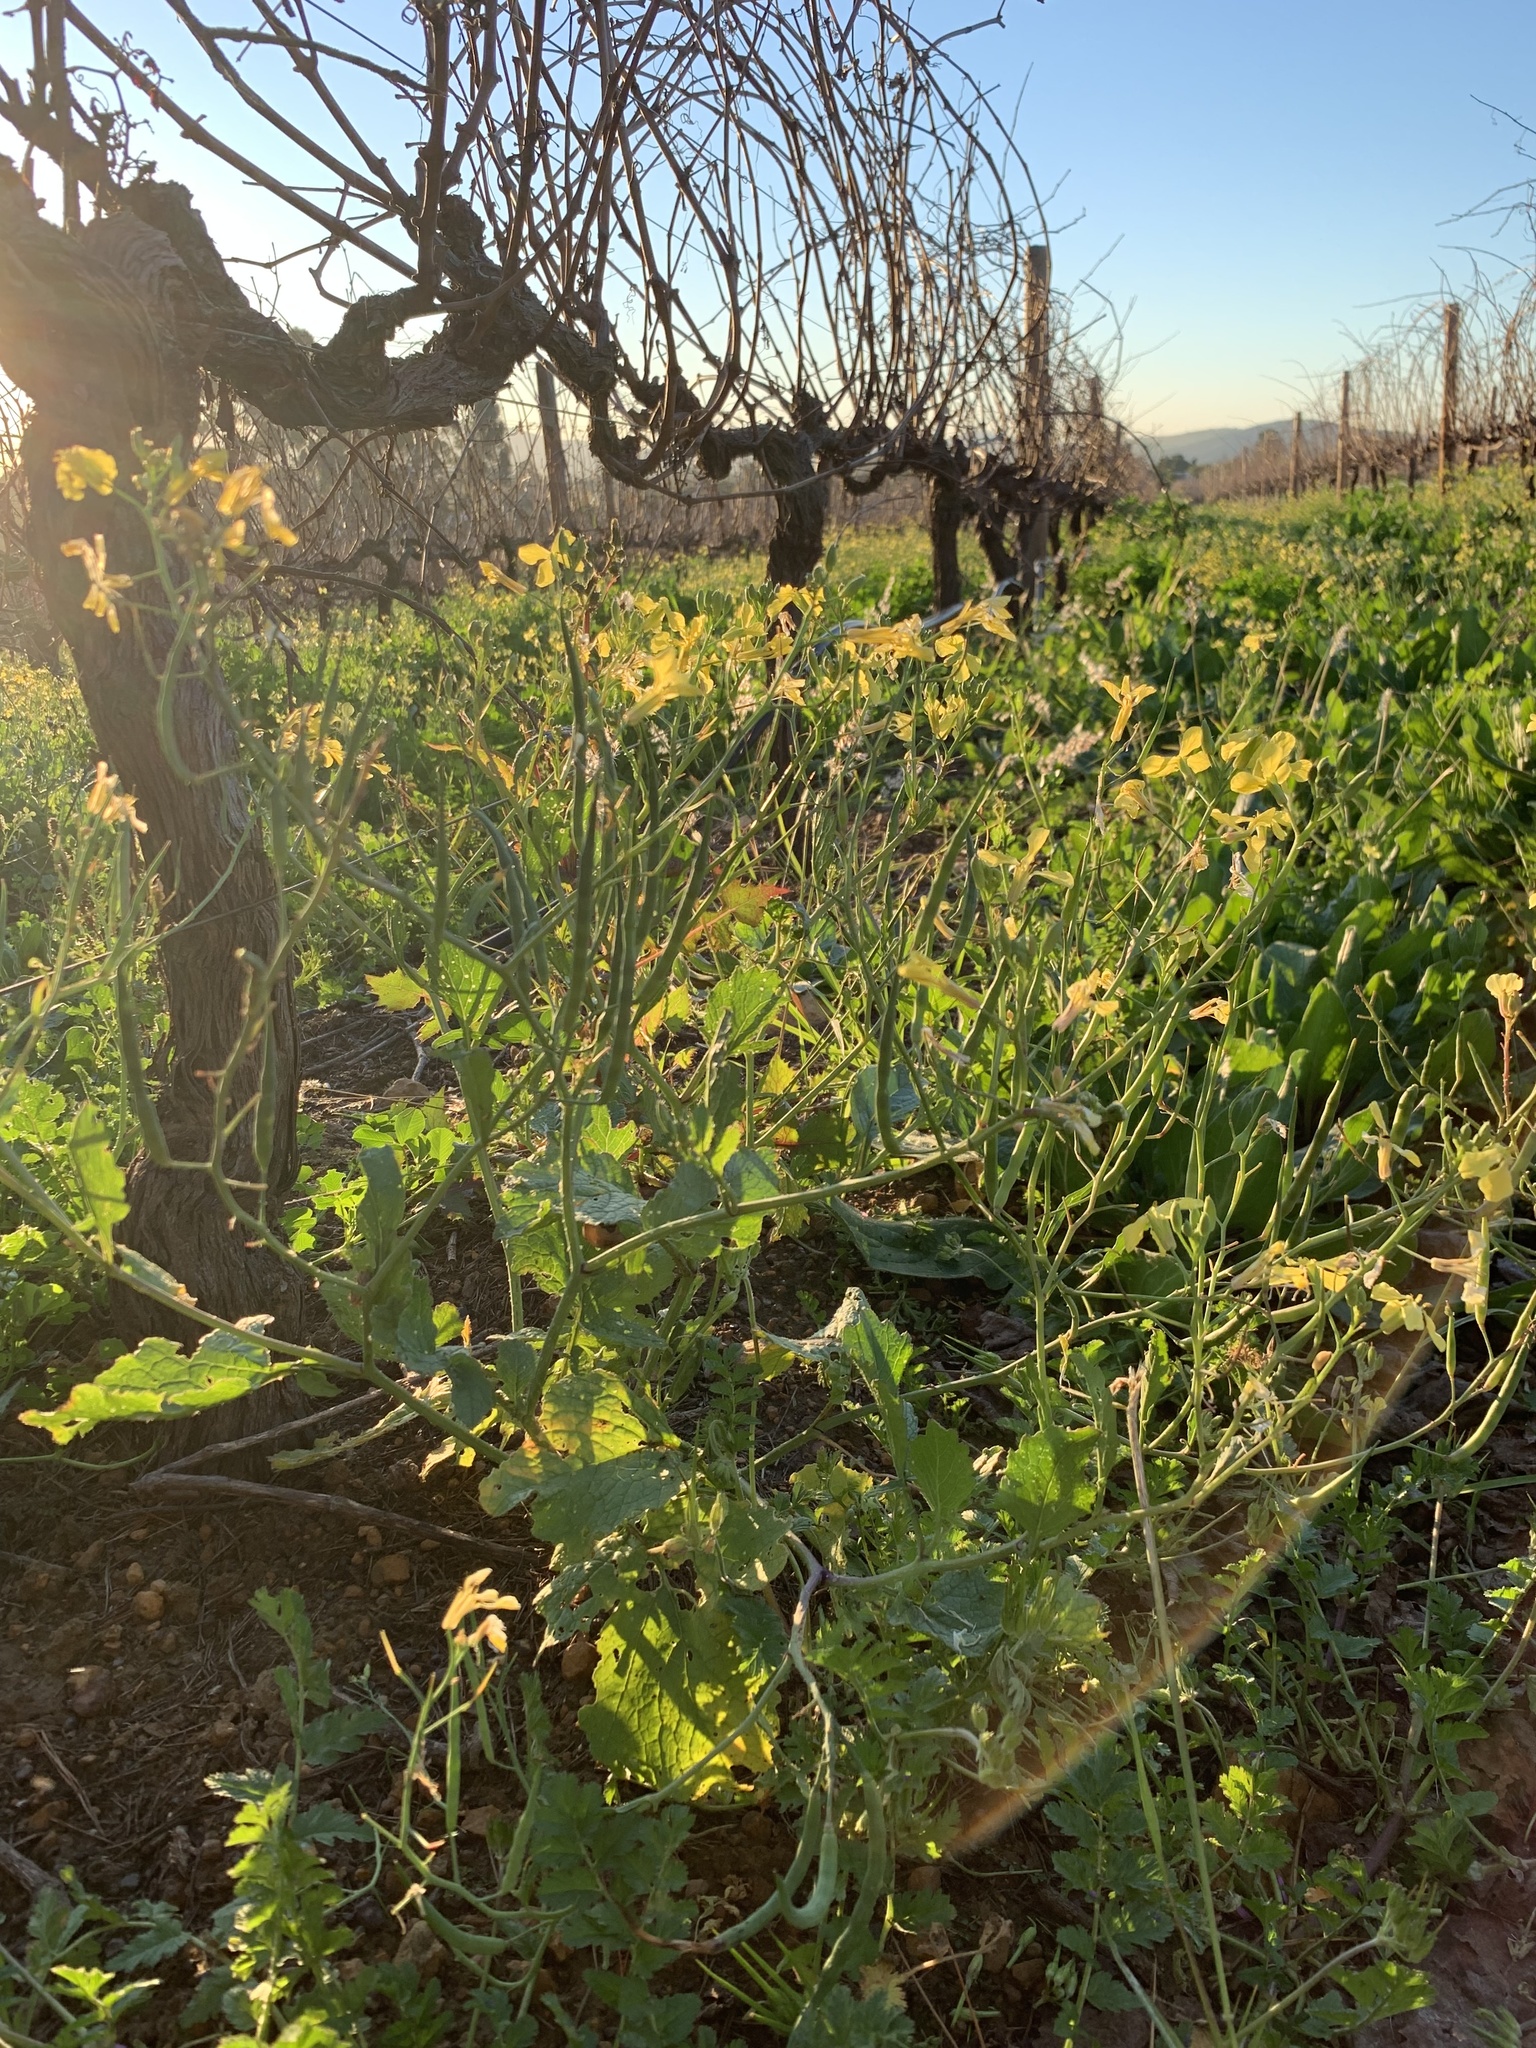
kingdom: Plantae
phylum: Tracheophyta
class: Magnoliopsida
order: Brassicales
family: Brassicaceae
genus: Raphanus
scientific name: Raphanus raphanistrum
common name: Wild radish
